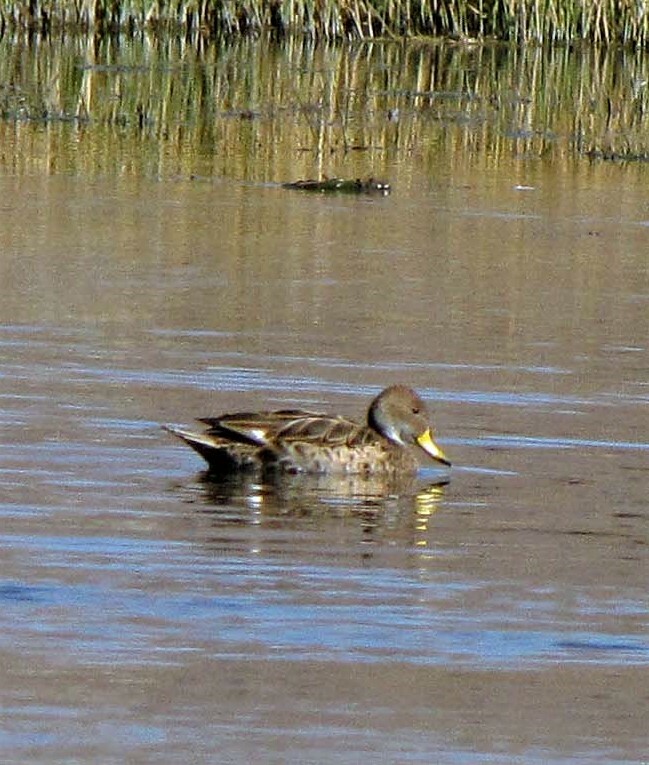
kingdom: Animalia
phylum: Chordata
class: Aves
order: Anseriformes
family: Anatidae
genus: Anas
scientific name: Anas georgica
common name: Yellow-billed pintail
